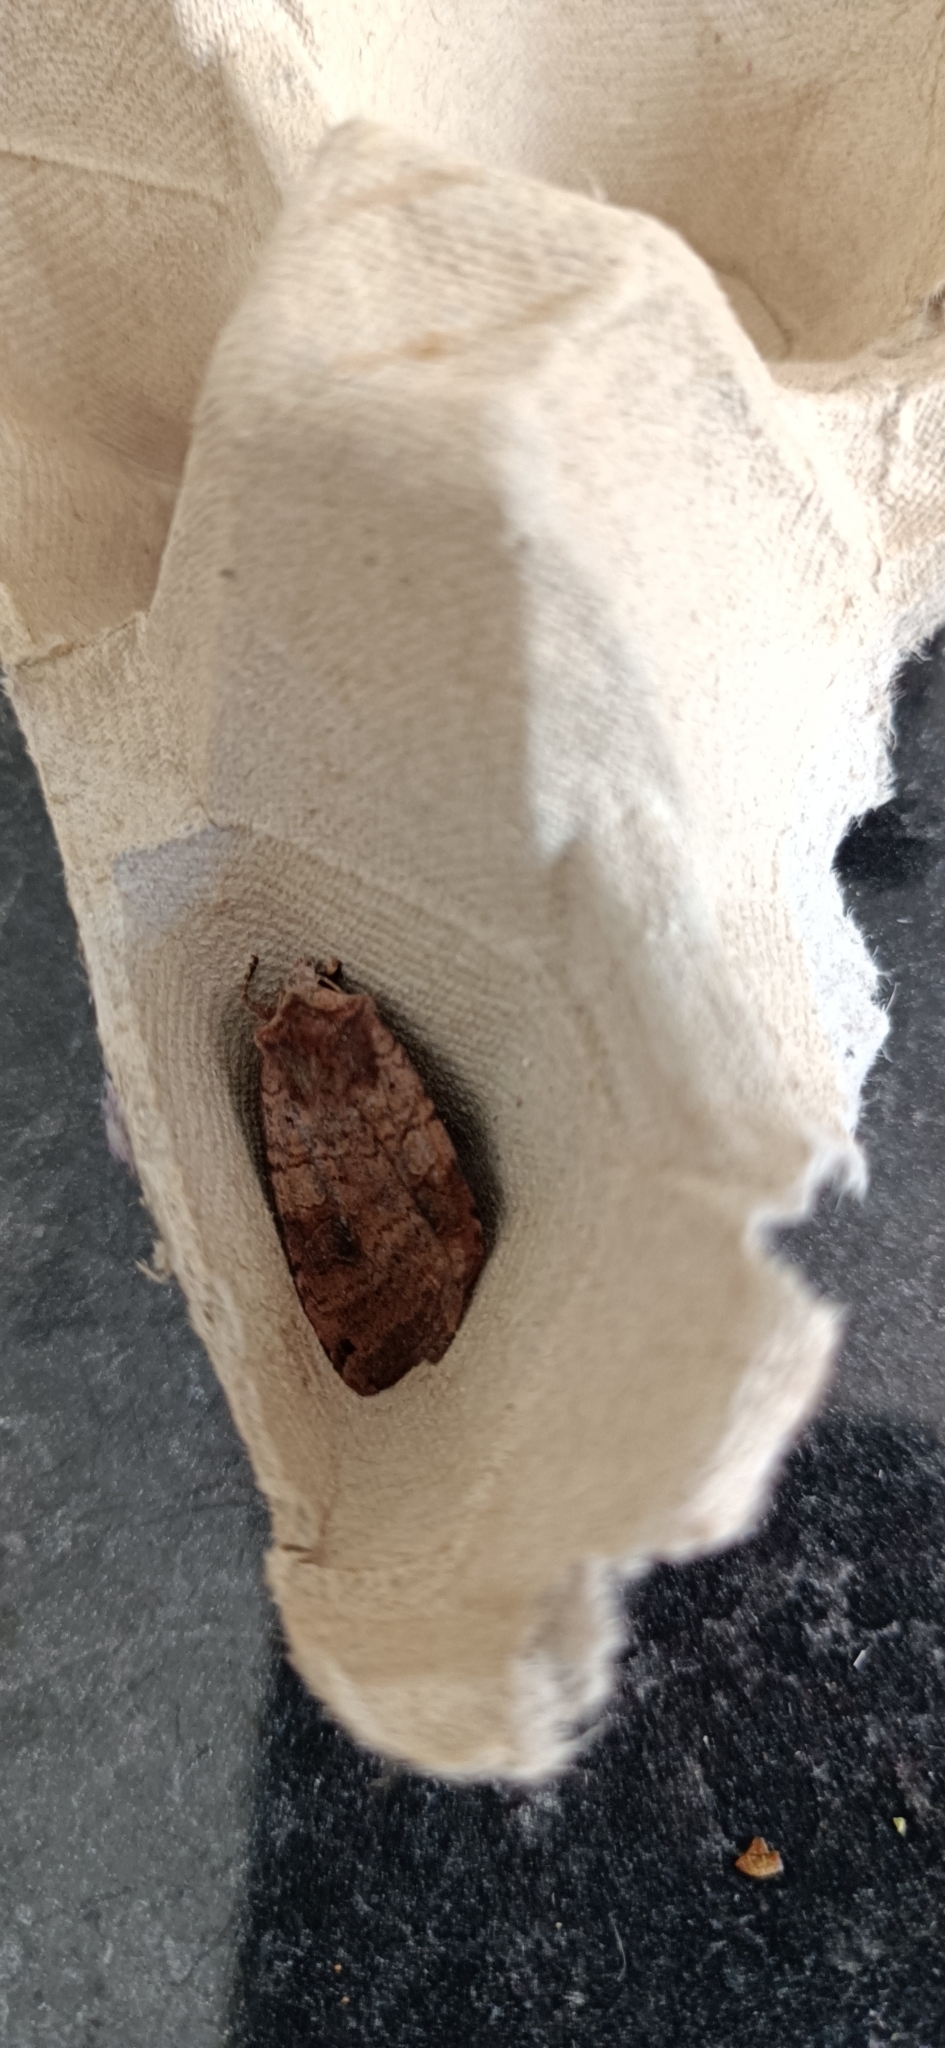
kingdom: Animalia
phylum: Arthropoda
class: Insecta
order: Lepidoptera
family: Noctuidae
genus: Xestia
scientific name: Xestia baja
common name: Dotted clay
